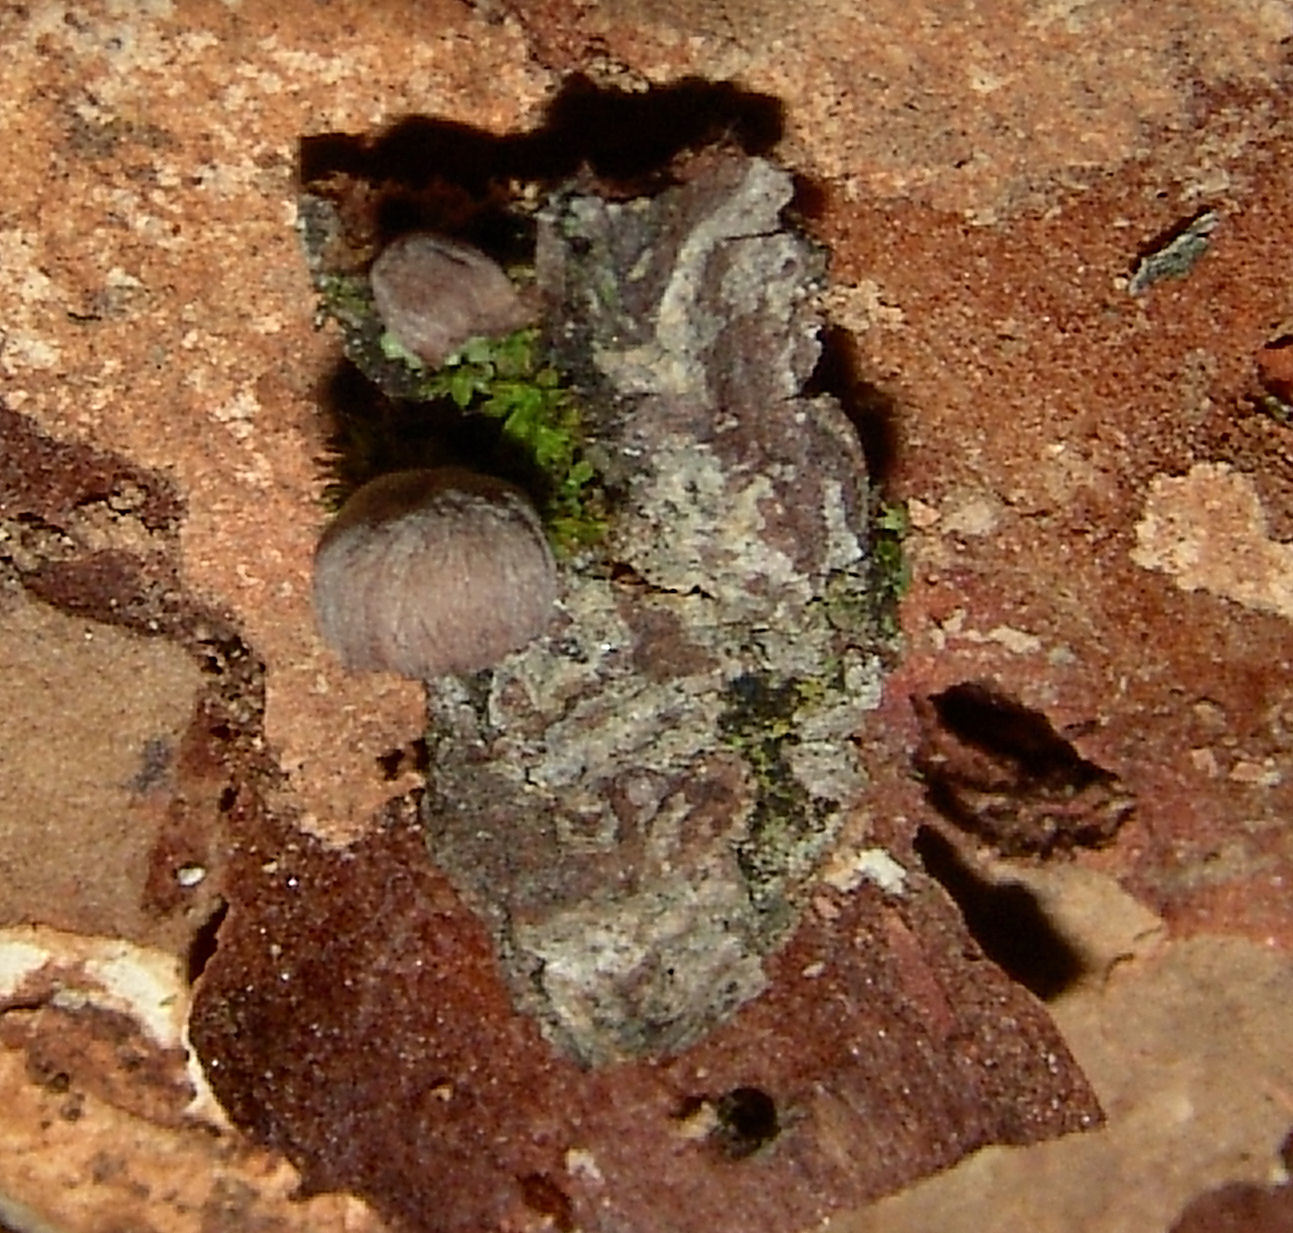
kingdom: Fungi
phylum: Basidiomycota
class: Agaricomycetes
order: Agaricales
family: Mycenaceae
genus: Mycena
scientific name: Mycena corticola
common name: Bark mycena
